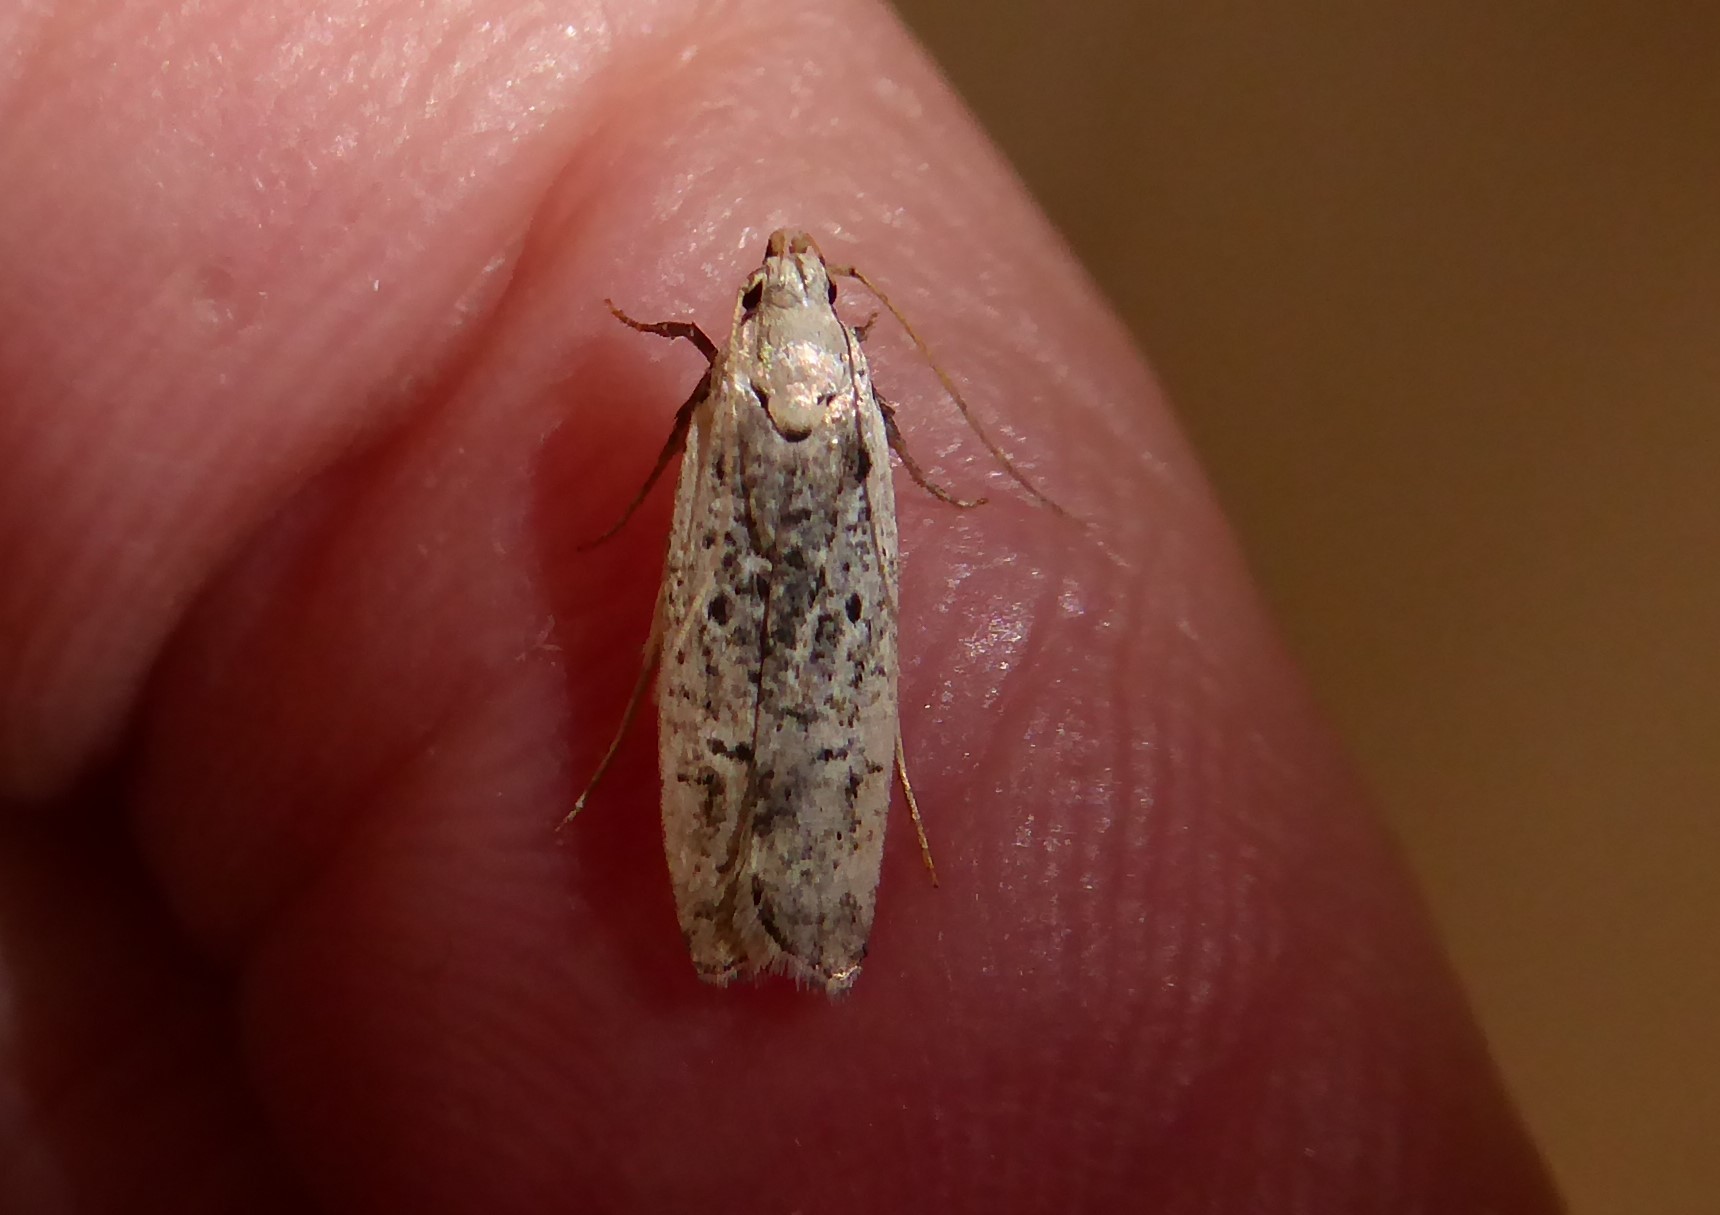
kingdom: Animalia
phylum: Arthropoda
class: Insecta
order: Lepidoptera
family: Gelechiidae
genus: Anisoplaca
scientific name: Anisoplaca achyrota
